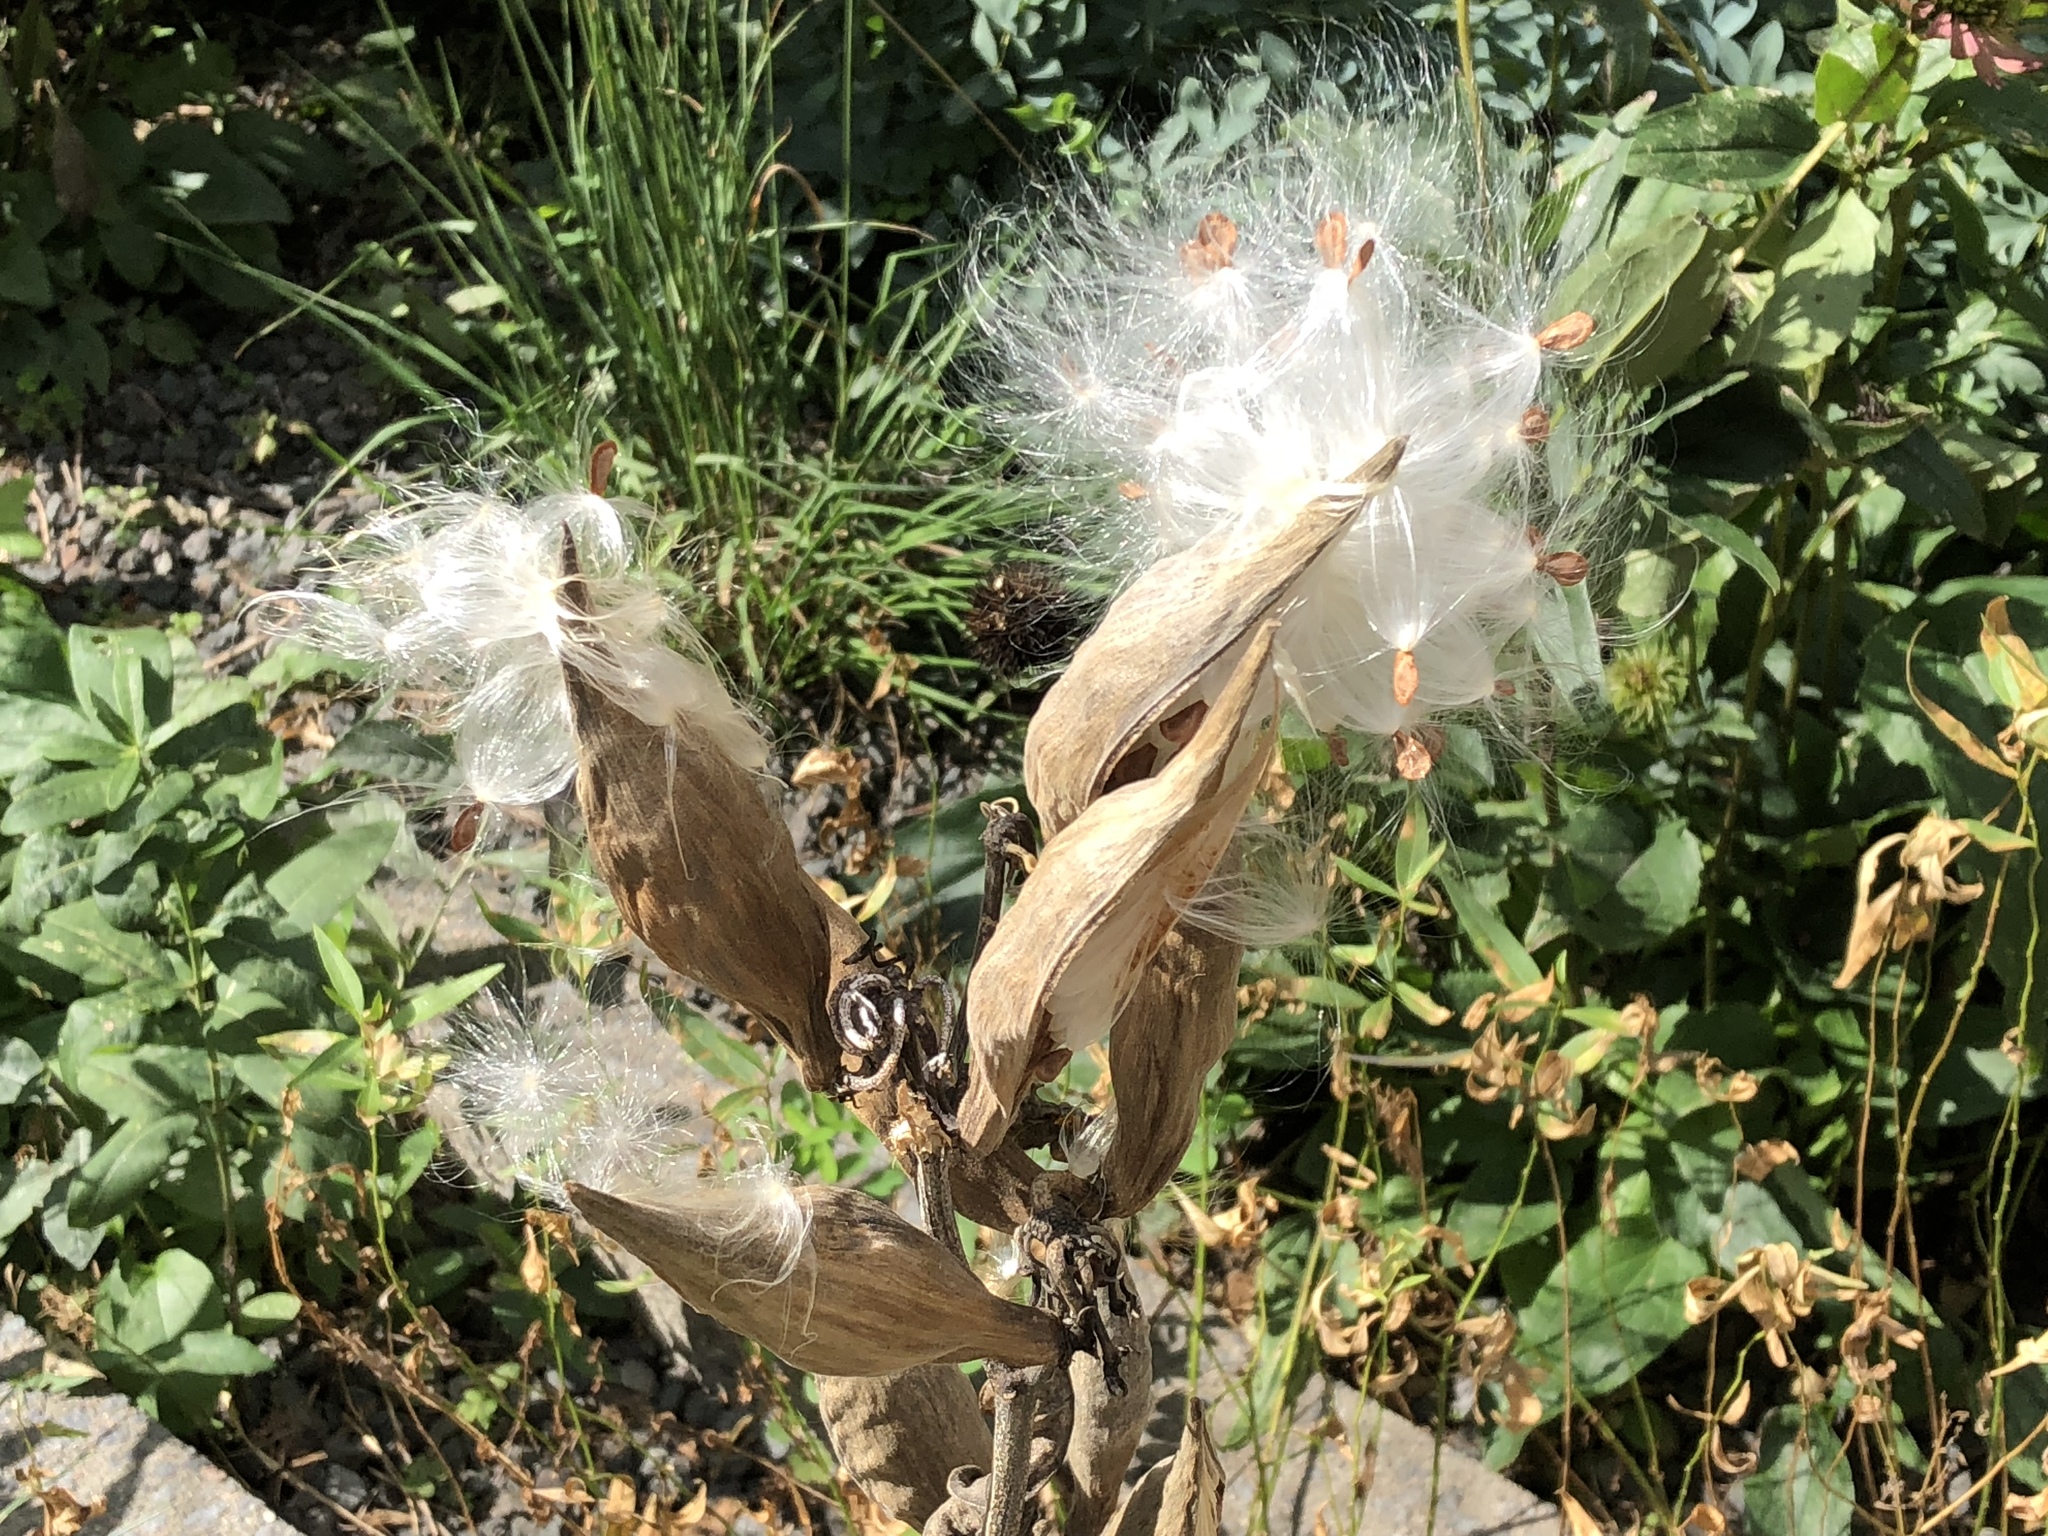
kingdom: Plantae
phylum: Tracheophyta
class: Magnoliopsida
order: Gentianales
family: Apocynaceae
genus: Asclepias
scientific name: Asclepias incarnata
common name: Swamp milkweed
